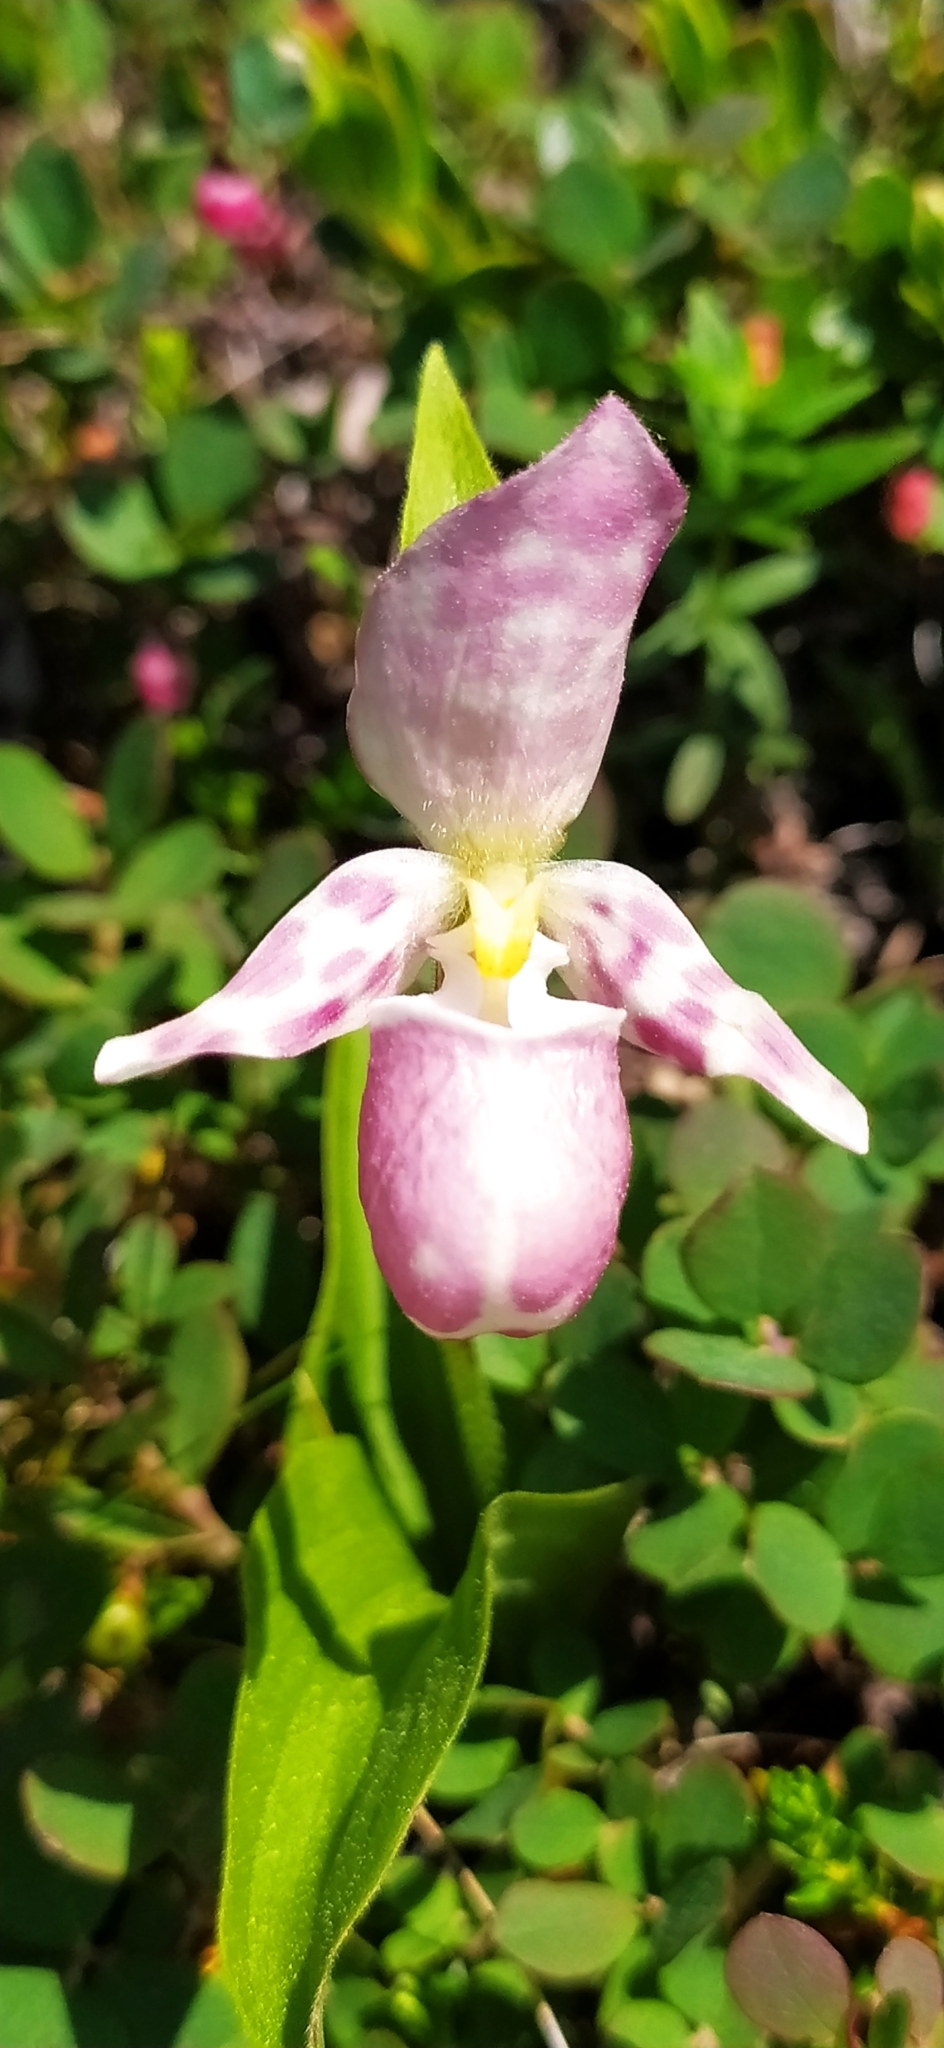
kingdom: Plantae
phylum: Tracheophyta
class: Liliopsida
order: Asparagales
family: Orchidaceae
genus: Cypripedium
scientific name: Cypripedium guttatum
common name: Pink lady slipper
